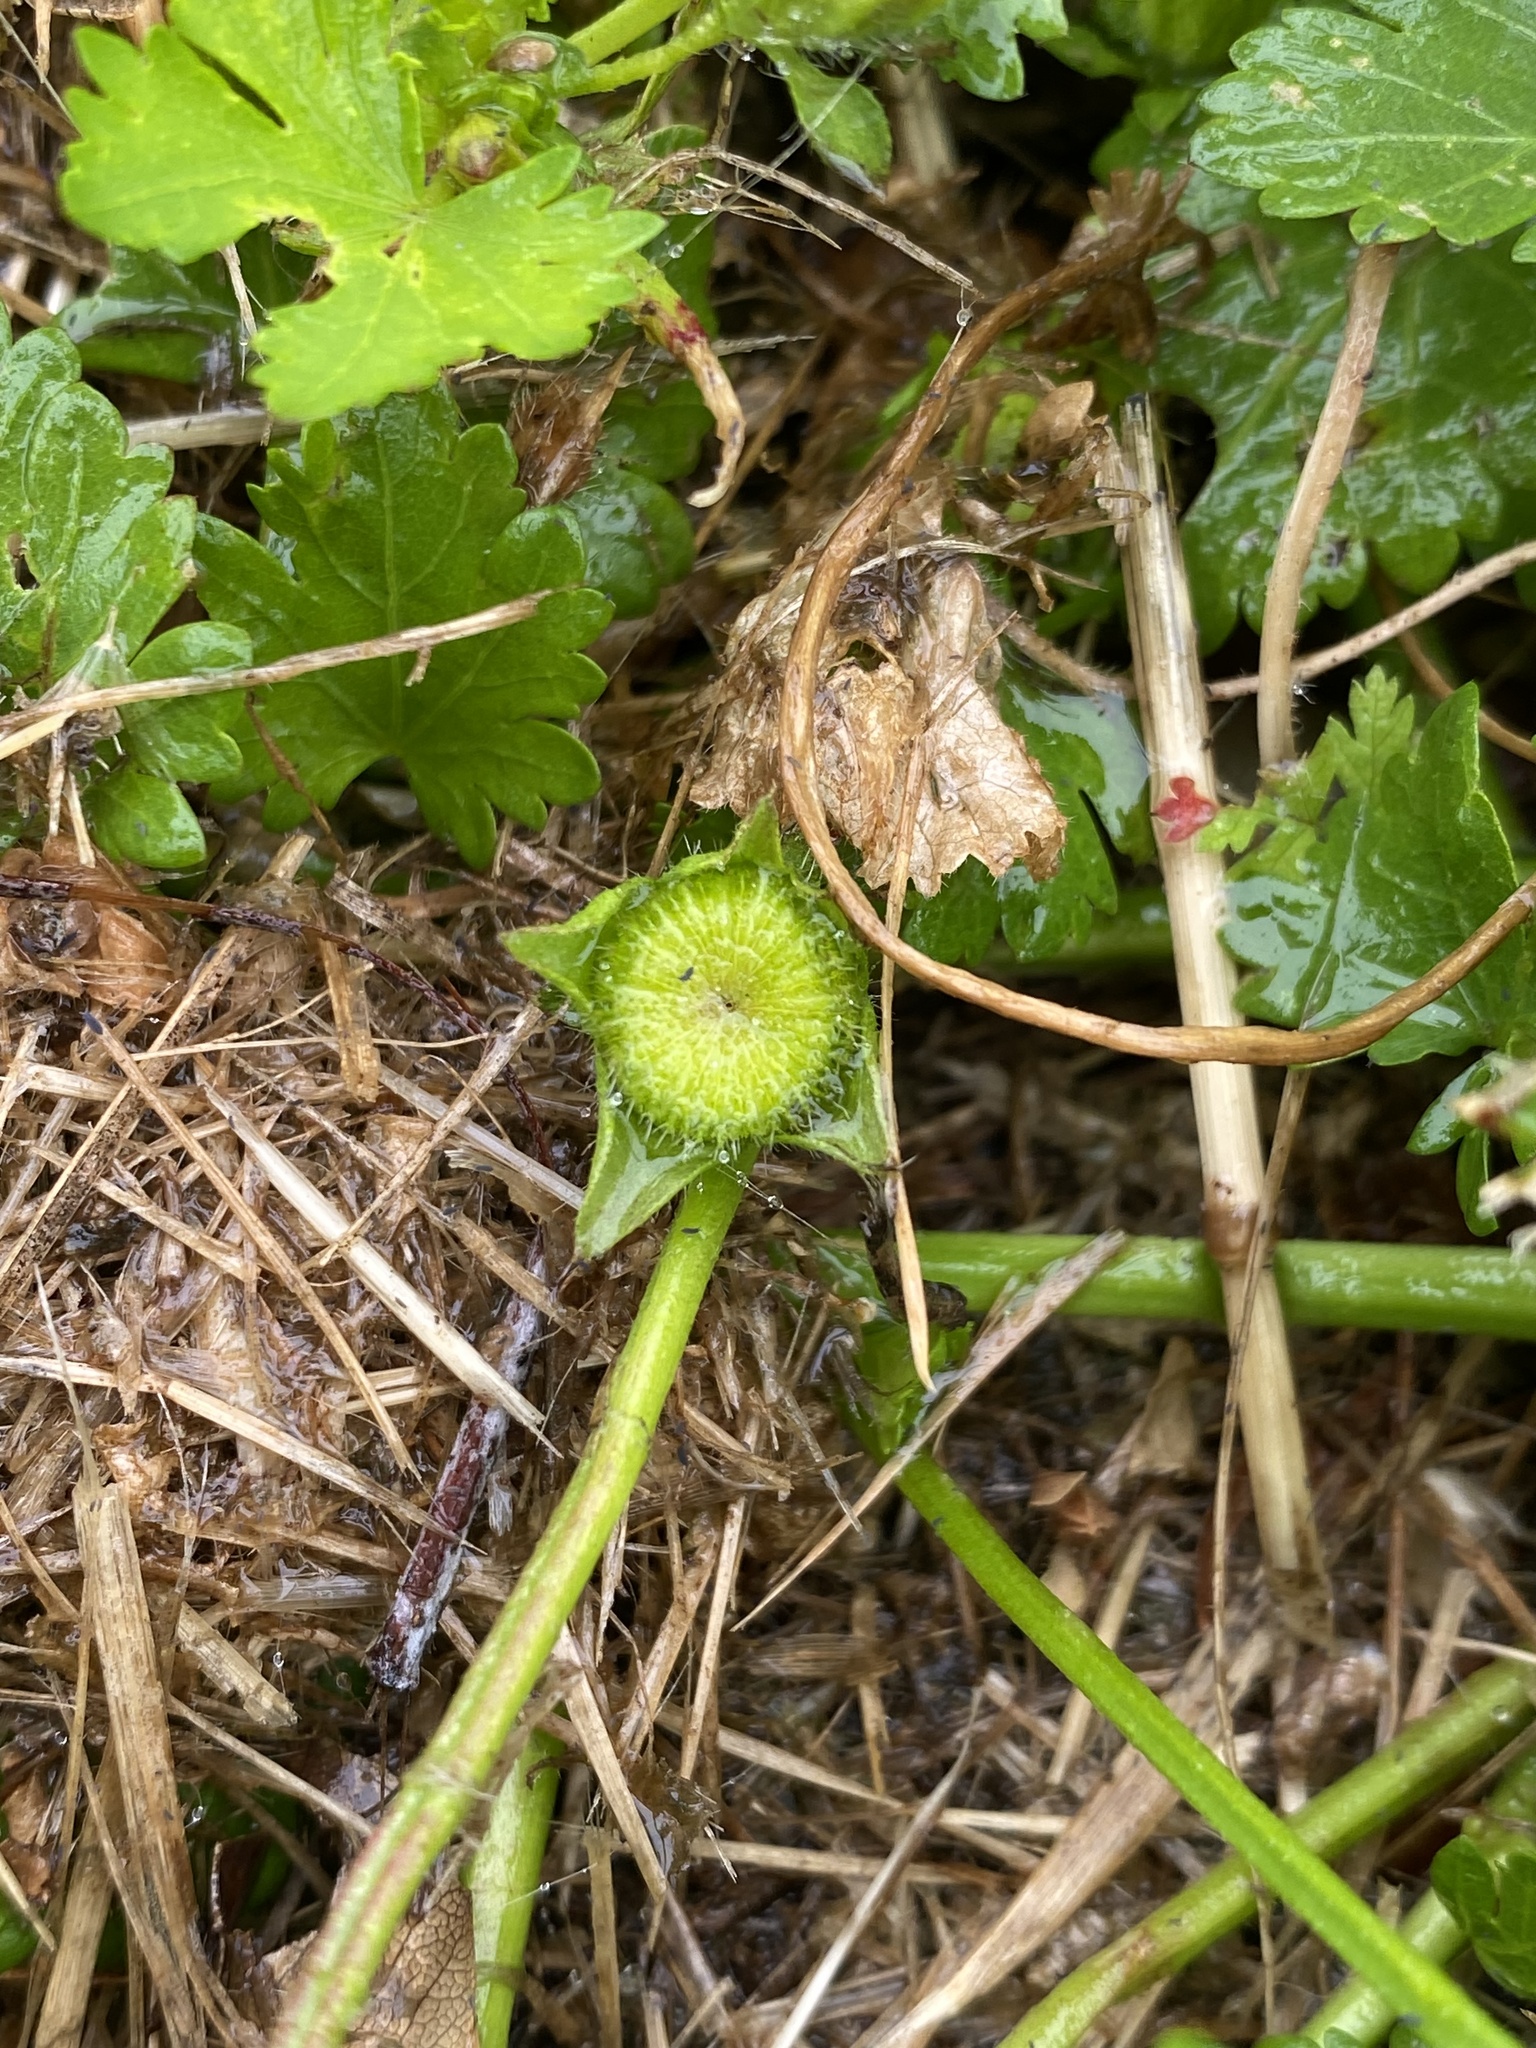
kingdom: Plantae
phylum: Tracheophyta
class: Magnoliopsida
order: Malvales
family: Malvaceae
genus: Modiola
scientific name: Modiola caroliniana
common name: Carolina bristlemallow
